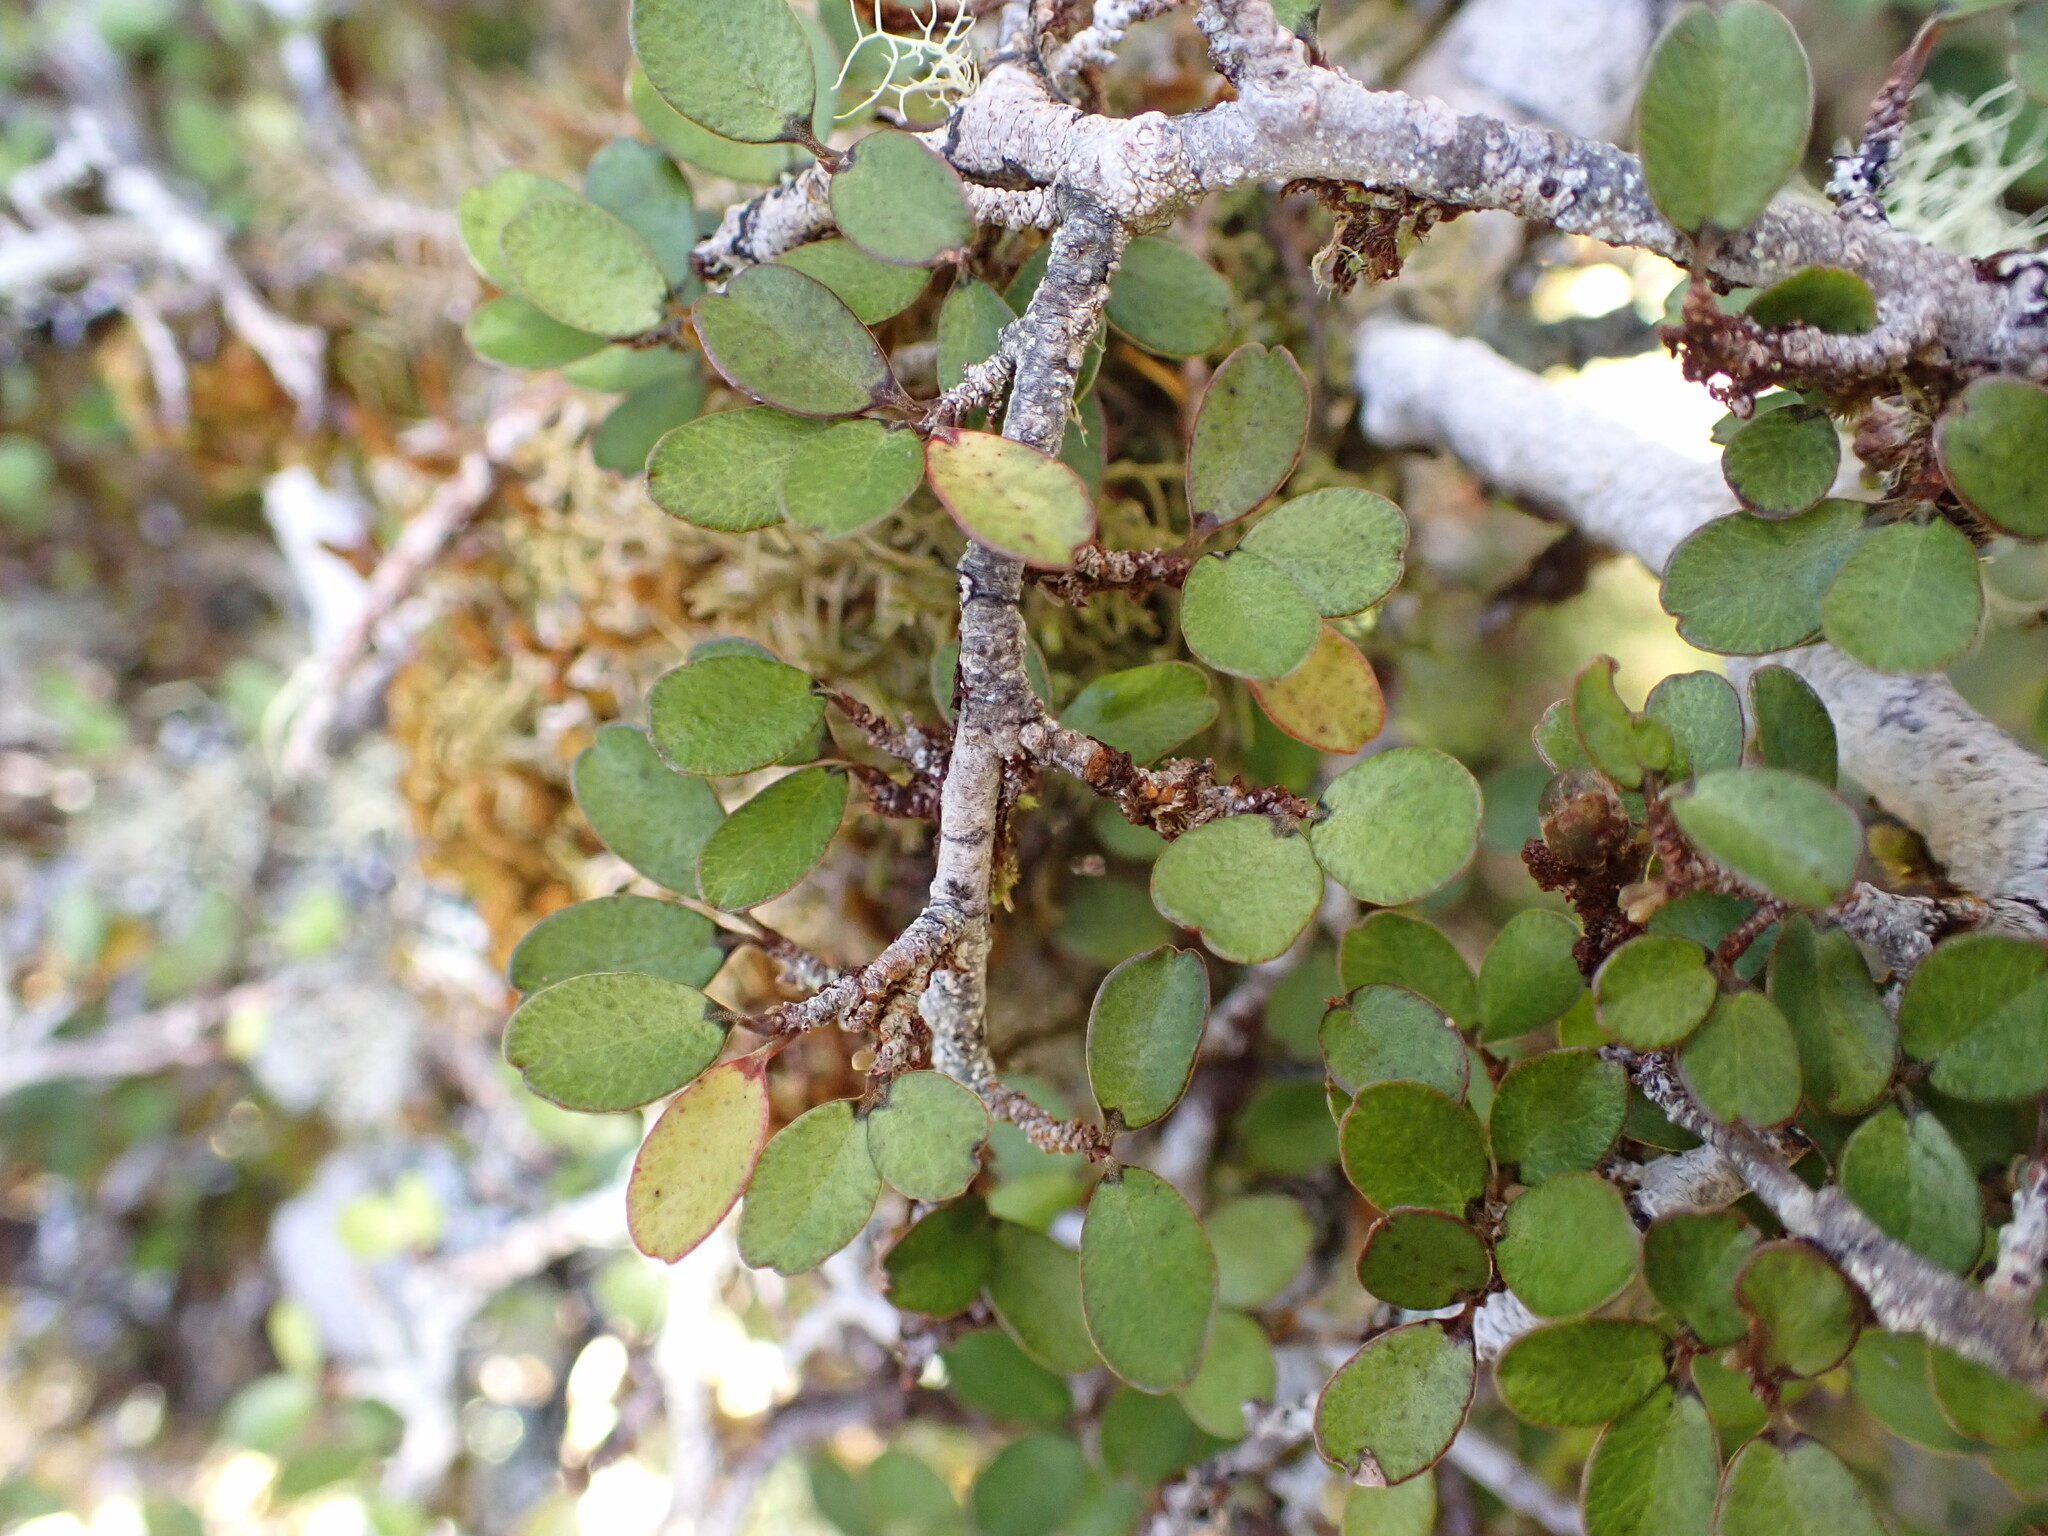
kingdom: Plantae
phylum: Tracheophyta
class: Magnoliopsida
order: Ericales
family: Primulaceae
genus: Myrsine
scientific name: Myrsine divaricata
